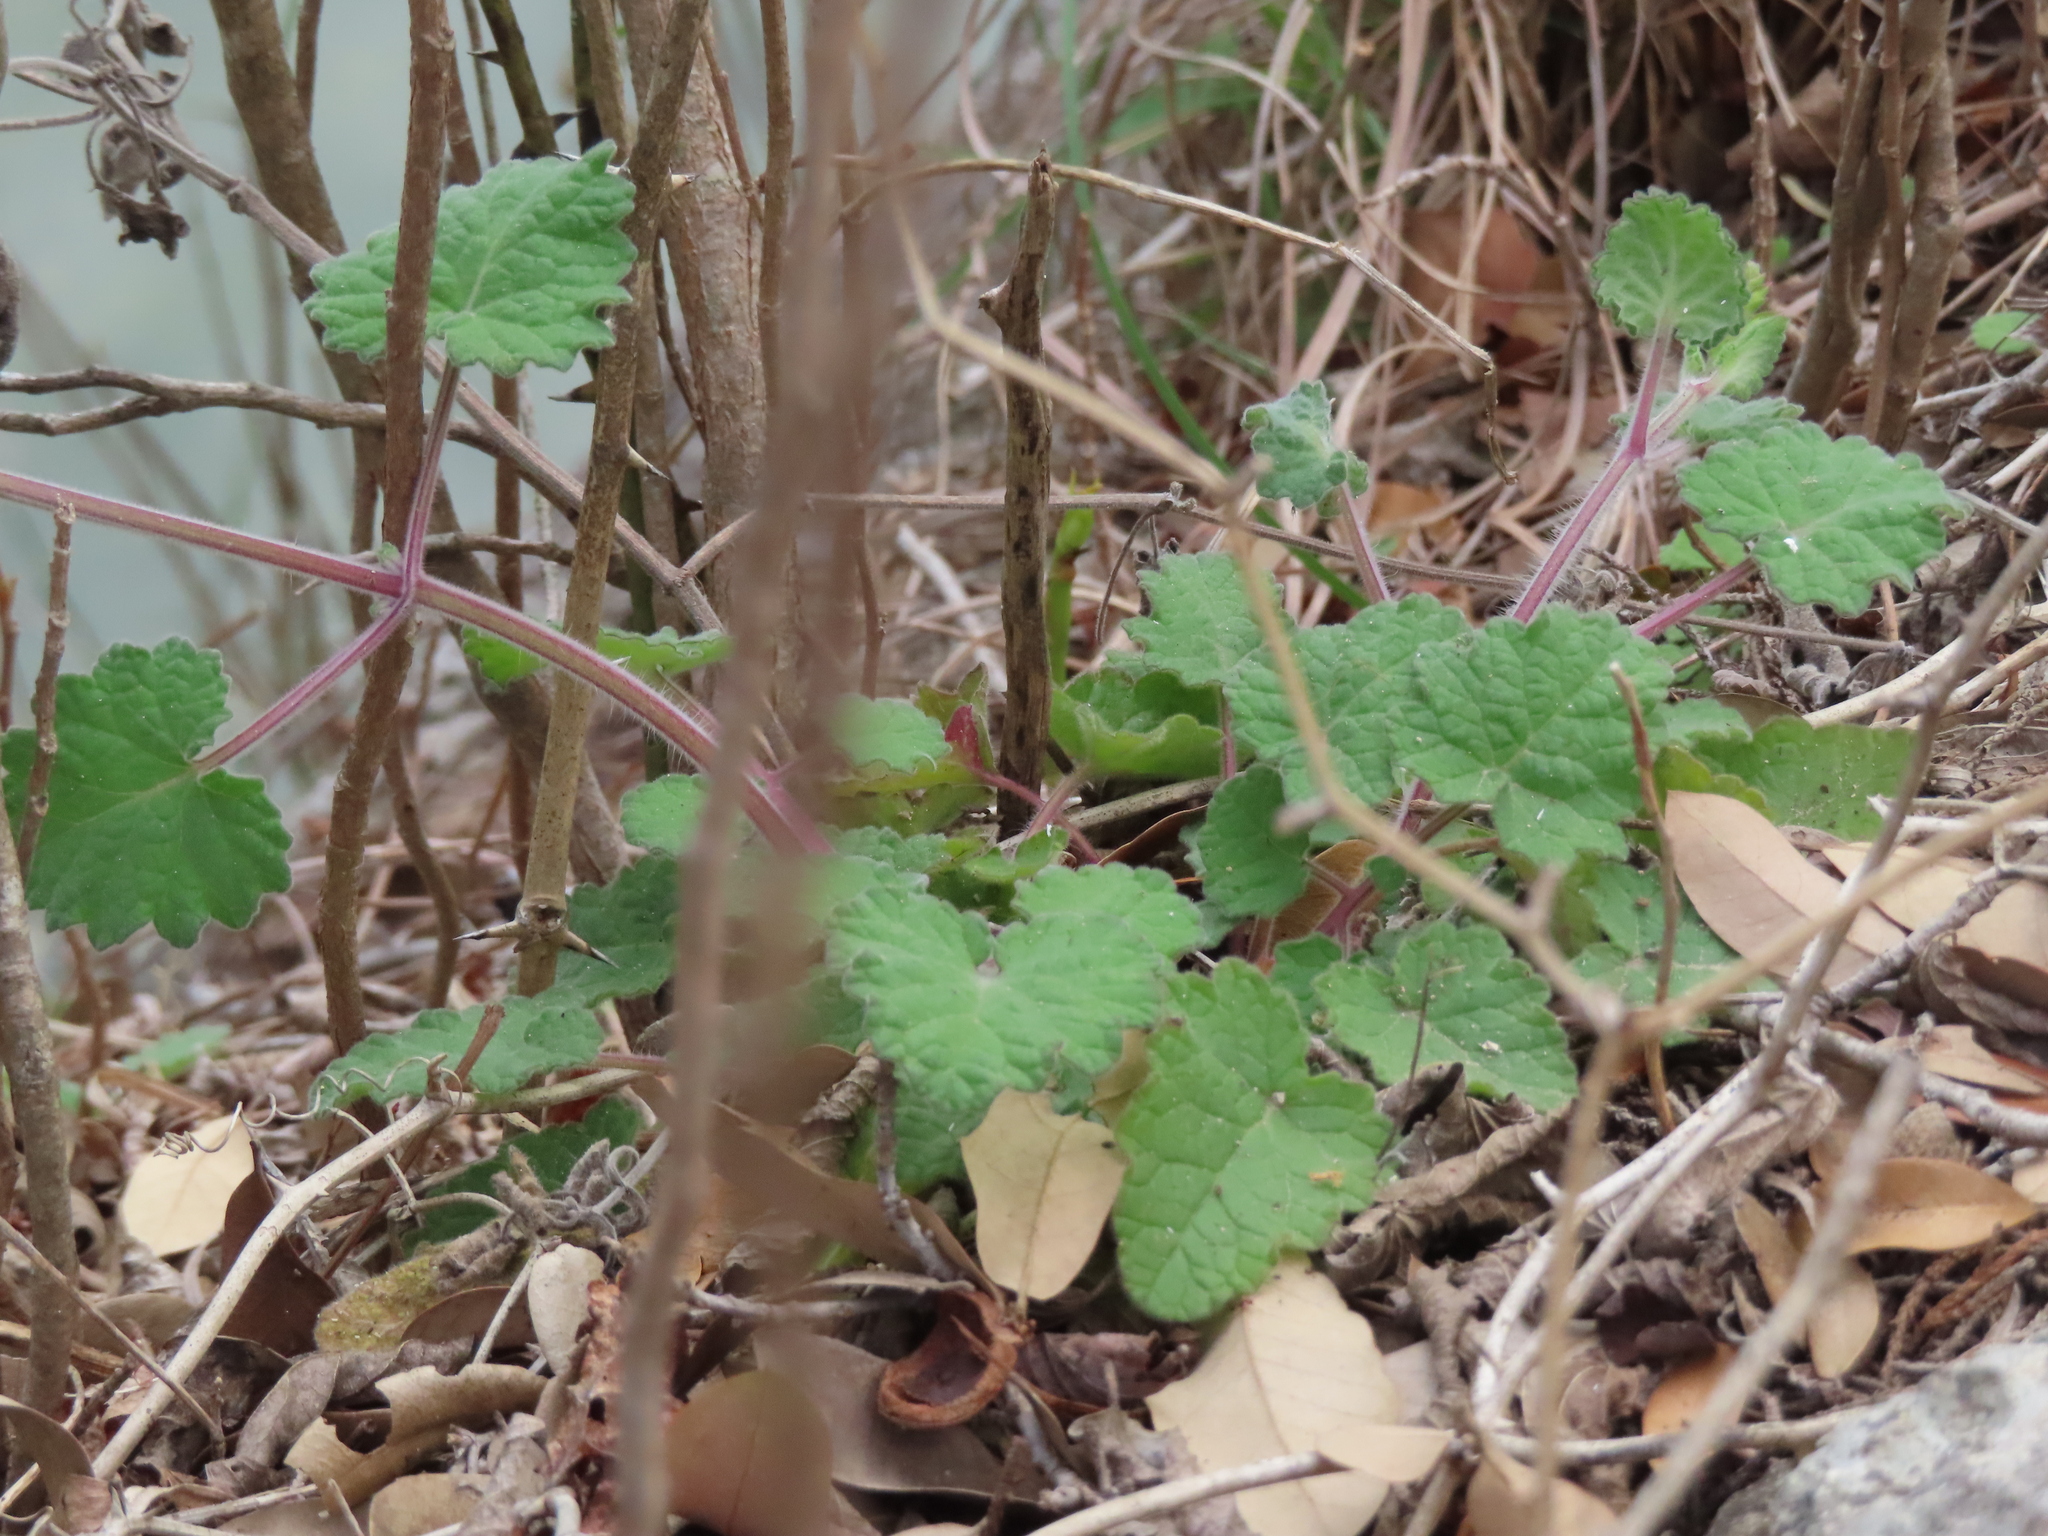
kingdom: Plantae
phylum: Tracheophyta
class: Magnoliopsida
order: Lamiales
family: Lamiaceae
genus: Salvia
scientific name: Salvia roemeriana
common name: Cedar sage
